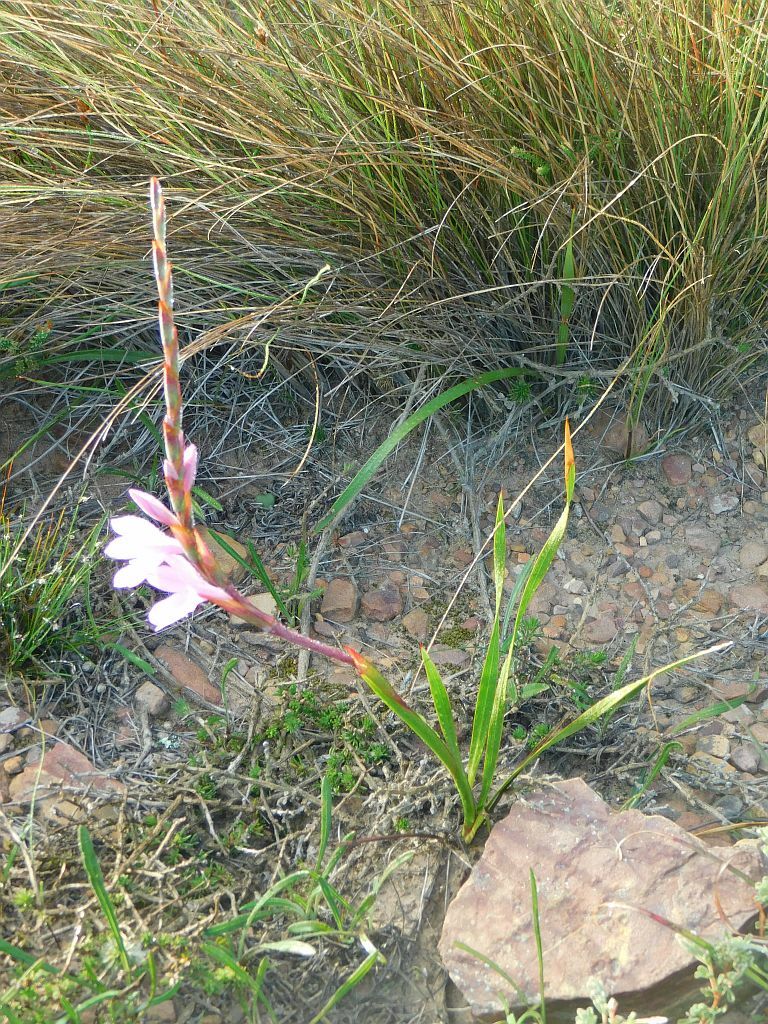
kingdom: Plantae
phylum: Tracheophyta
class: Liliopsida
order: Asparagales
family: Iridaceae
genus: Watsonia
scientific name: Watsonia laccata
